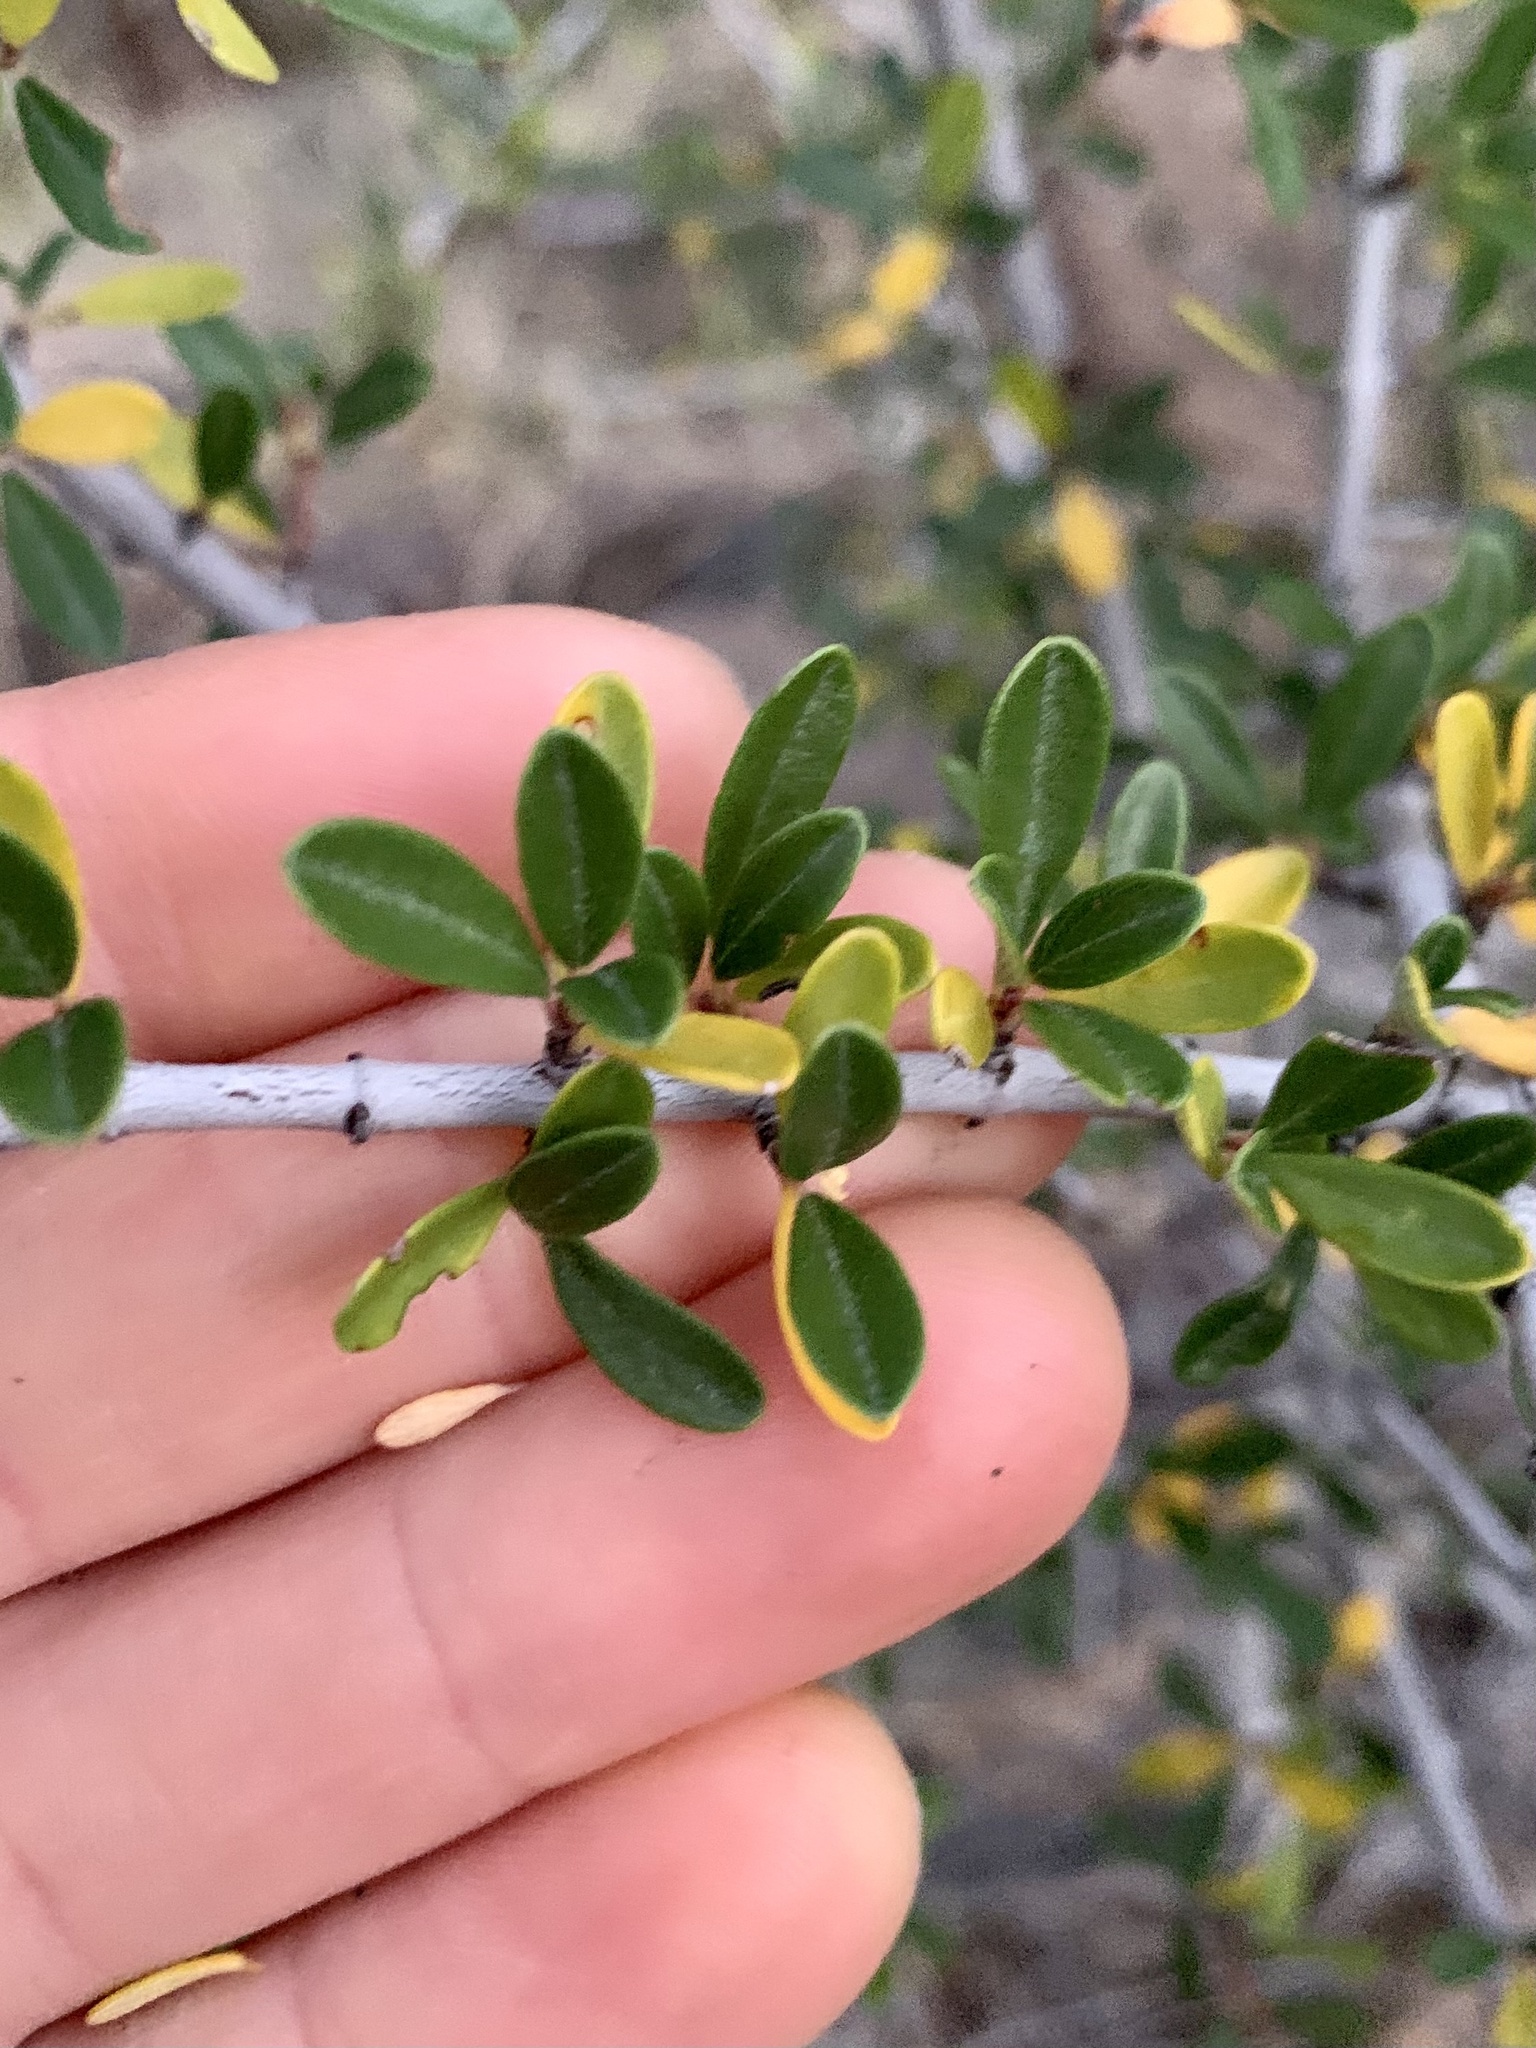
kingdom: Plantae
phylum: Tracheophyta
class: Magnoliopsida
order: Rosales
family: Rhamnaceae
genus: Ceanothus
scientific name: Ceanothus cuneatus
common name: Cuneate ceanothus
